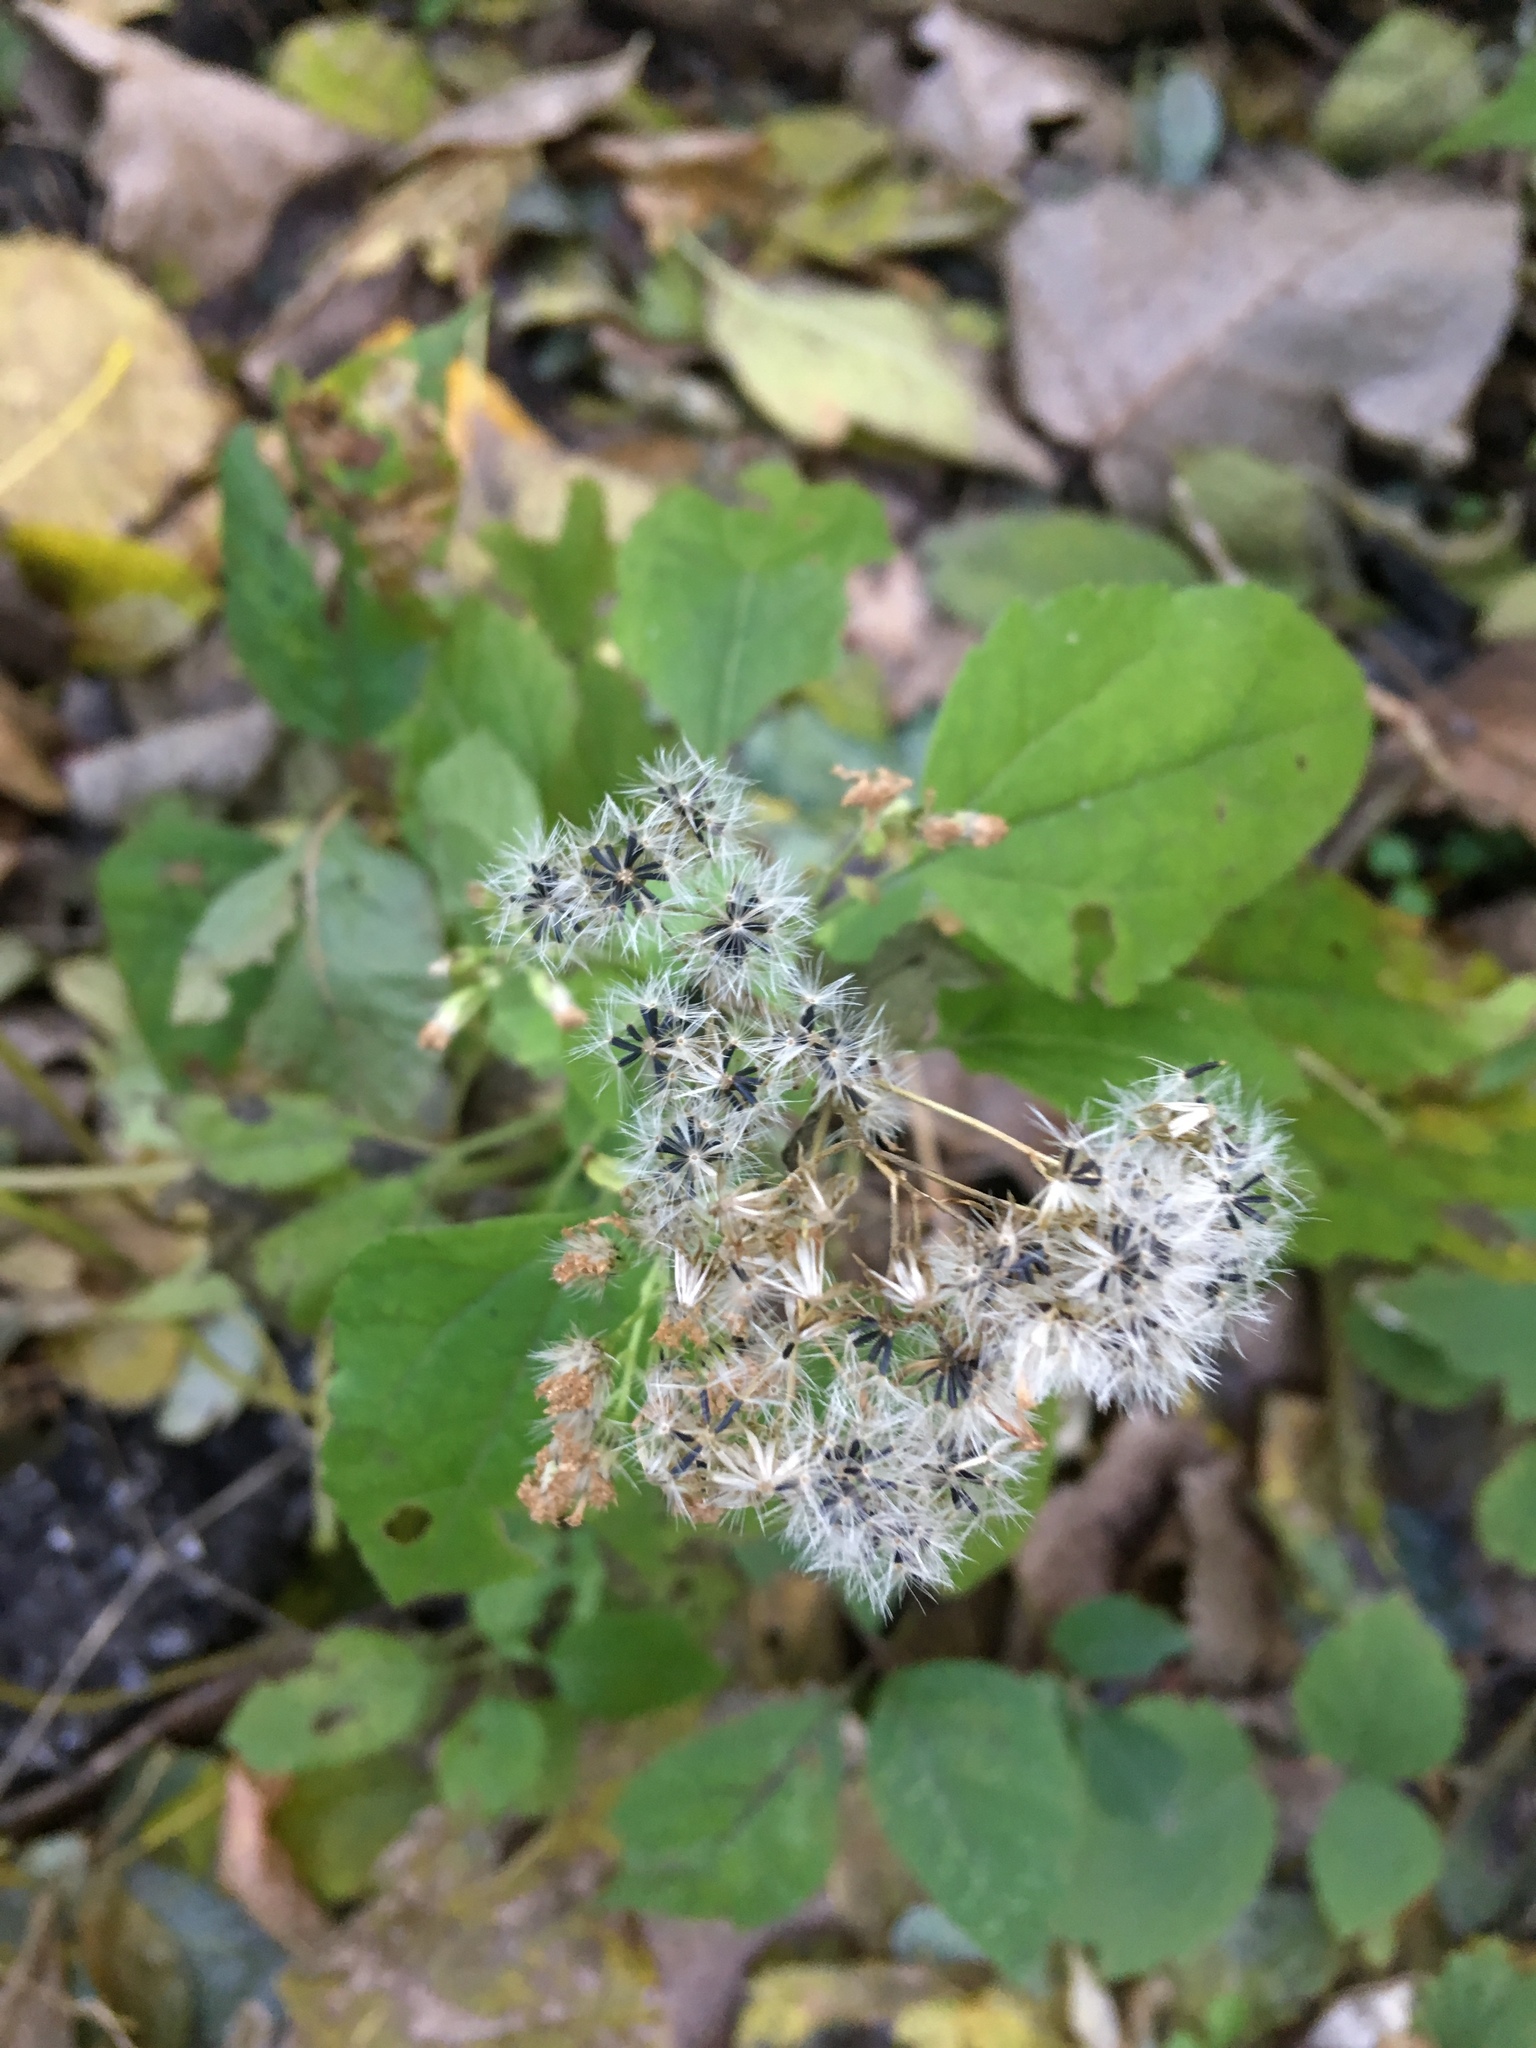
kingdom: Plantae
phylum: Tracheophyta
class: Magnoliopsida
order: Asterales
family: Asteraceae
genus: Ageratina
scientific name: Ageratina altissima
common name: White snakeroot
